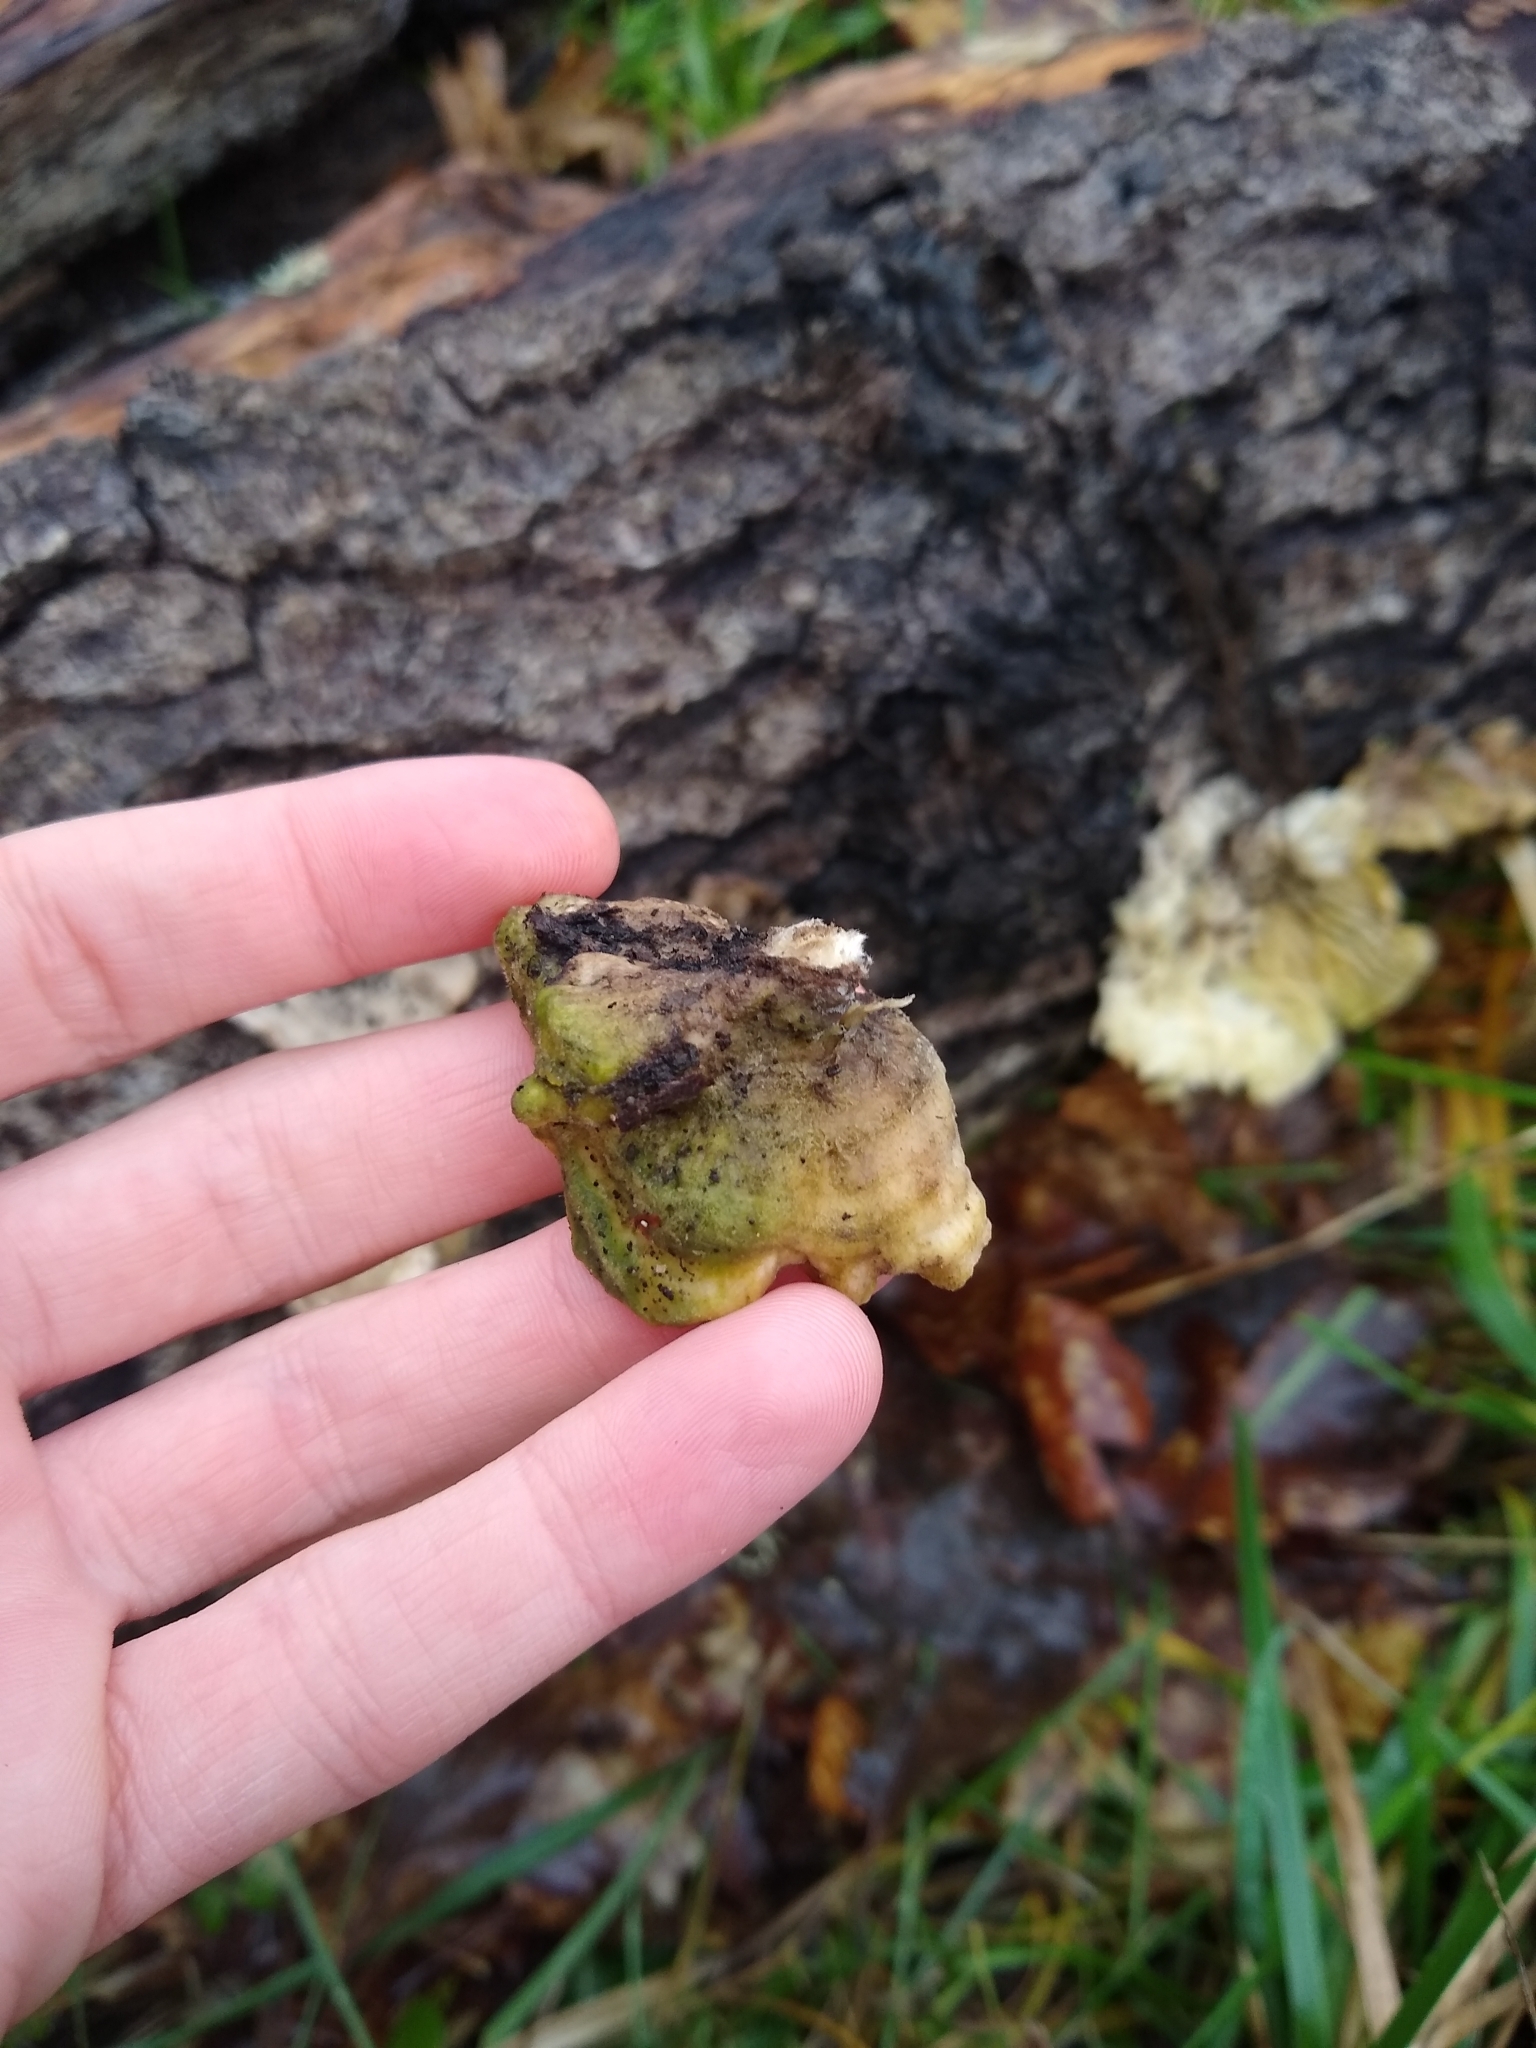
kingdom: Fungi
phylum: Basidiomycota
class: Agaricomycetes
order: Polyporales
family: Polyporaceae
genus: Lenzites
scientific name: Lenzites betulinus
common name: Birch mazegill
